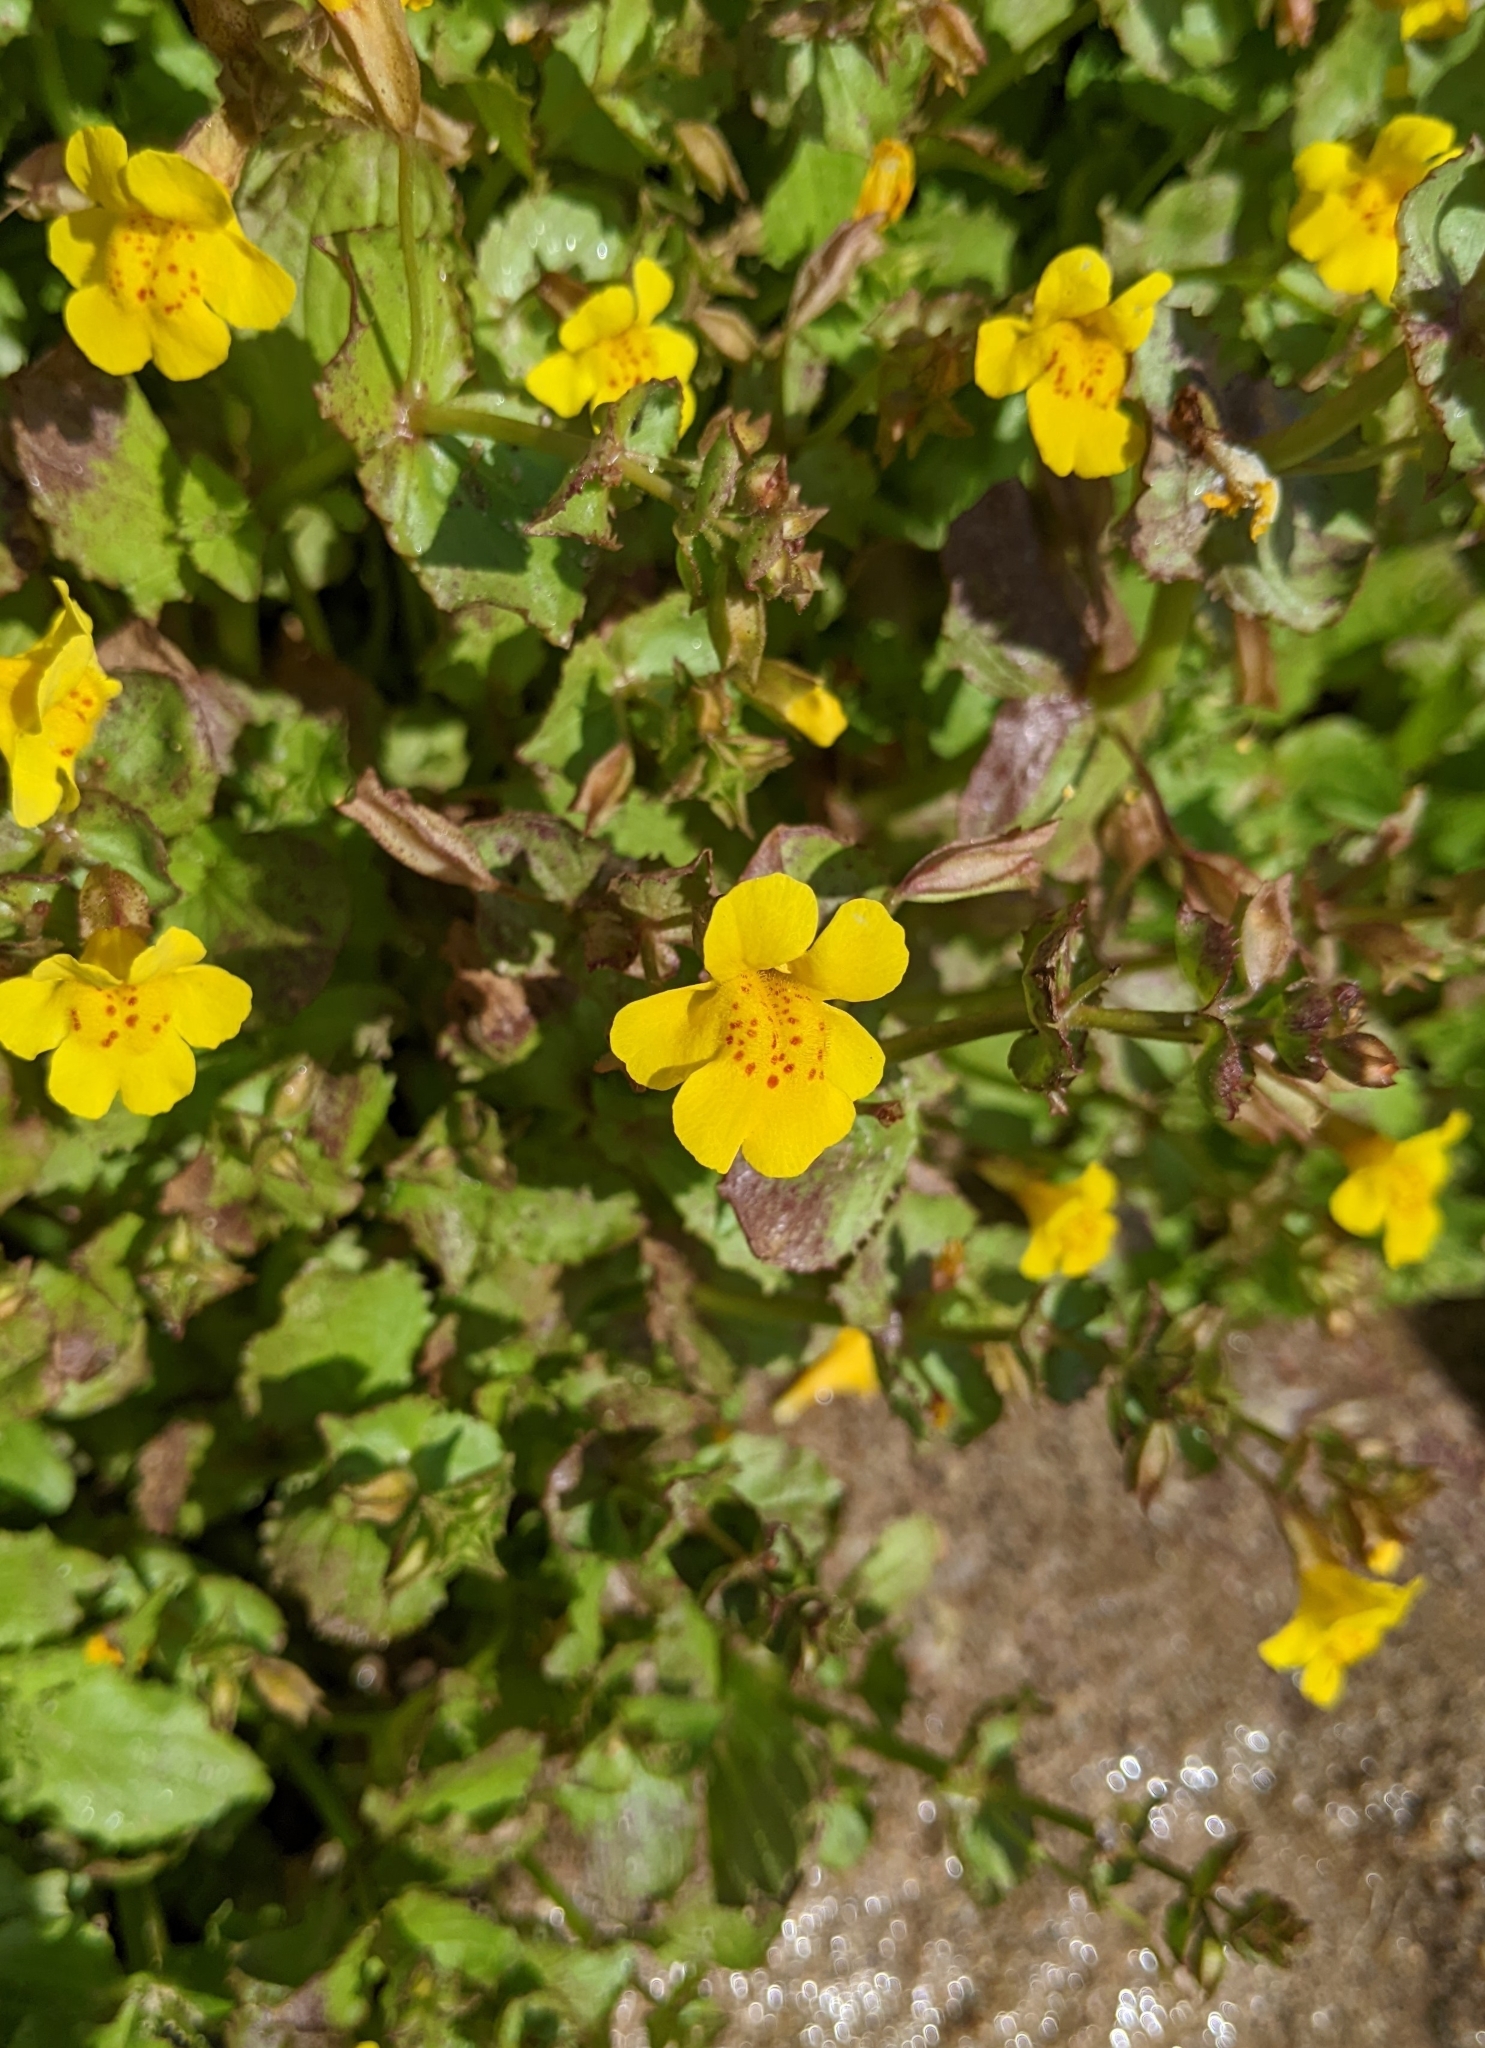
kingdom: Plantae
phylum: Tracheophyta
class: Magnoliopsida
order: Lamiales
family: Phrymaceae
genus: Erythranthe
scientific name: Erythranthe guttata
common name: Monkeyflower
